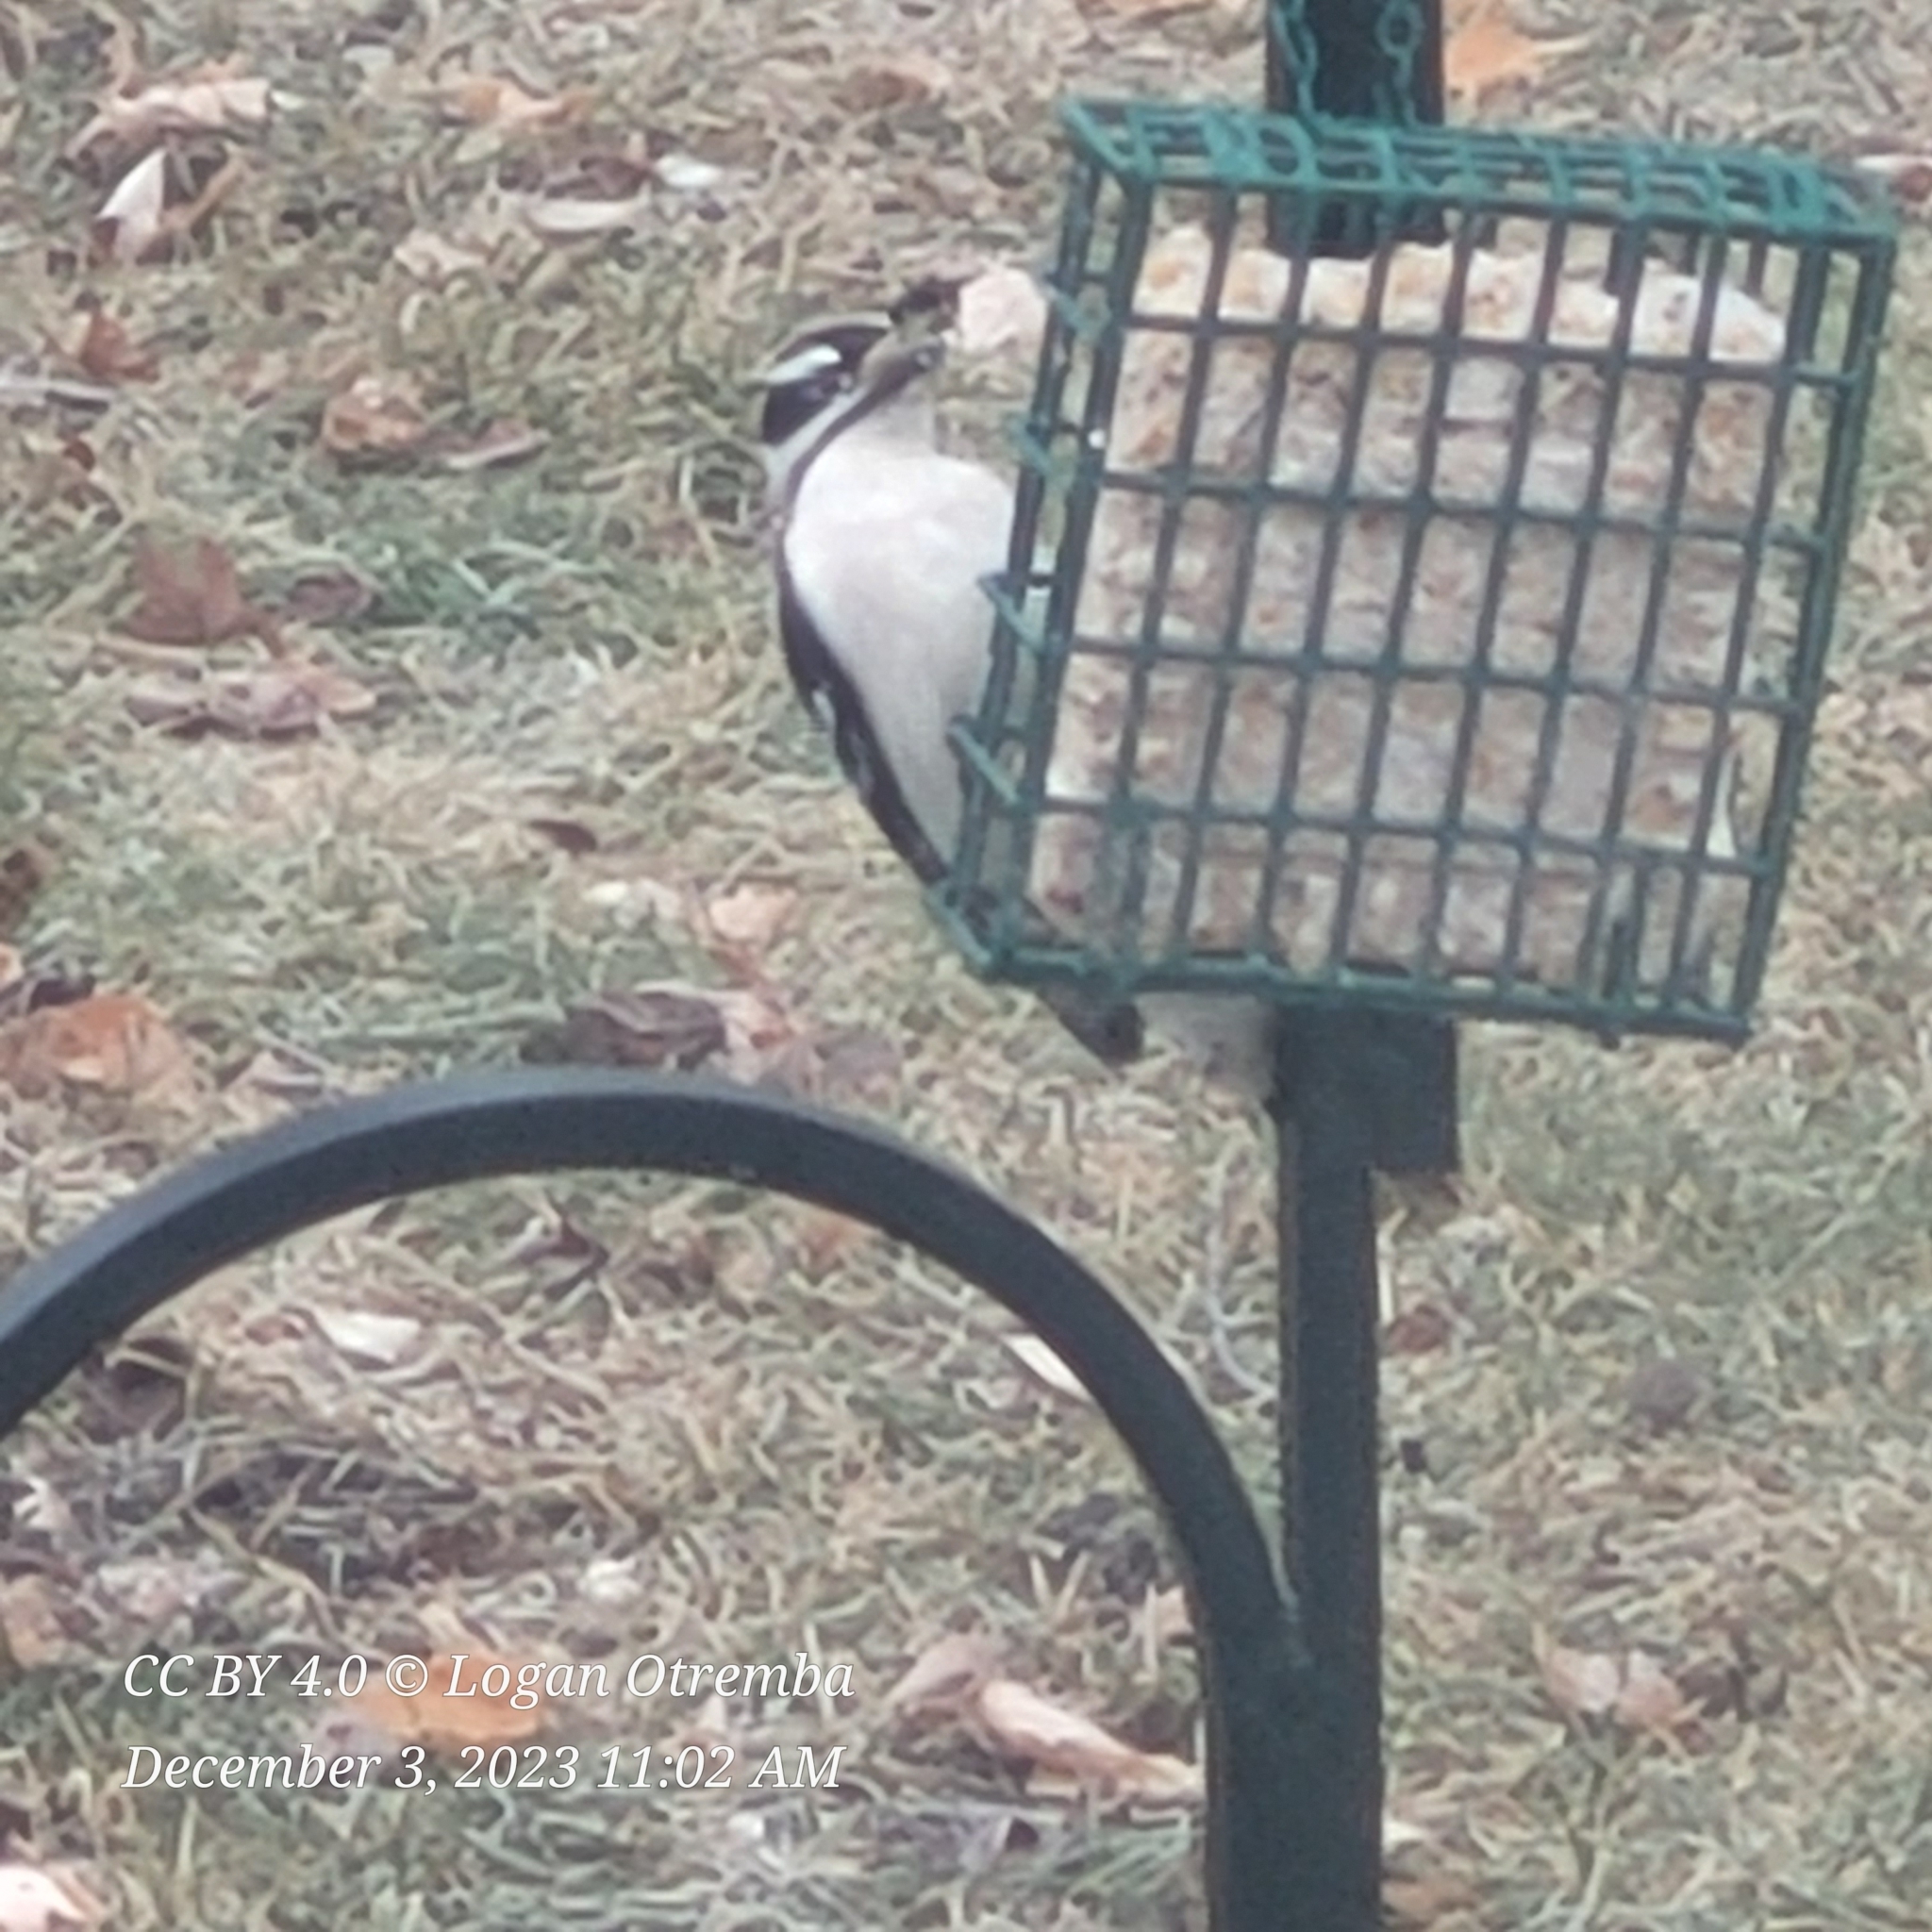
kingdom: Animalia
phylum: Chordata
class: Aves
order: Piciformes
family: Picidae
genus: Dryobates
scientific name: Dryobates pubescens
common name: Downy woodpecker
